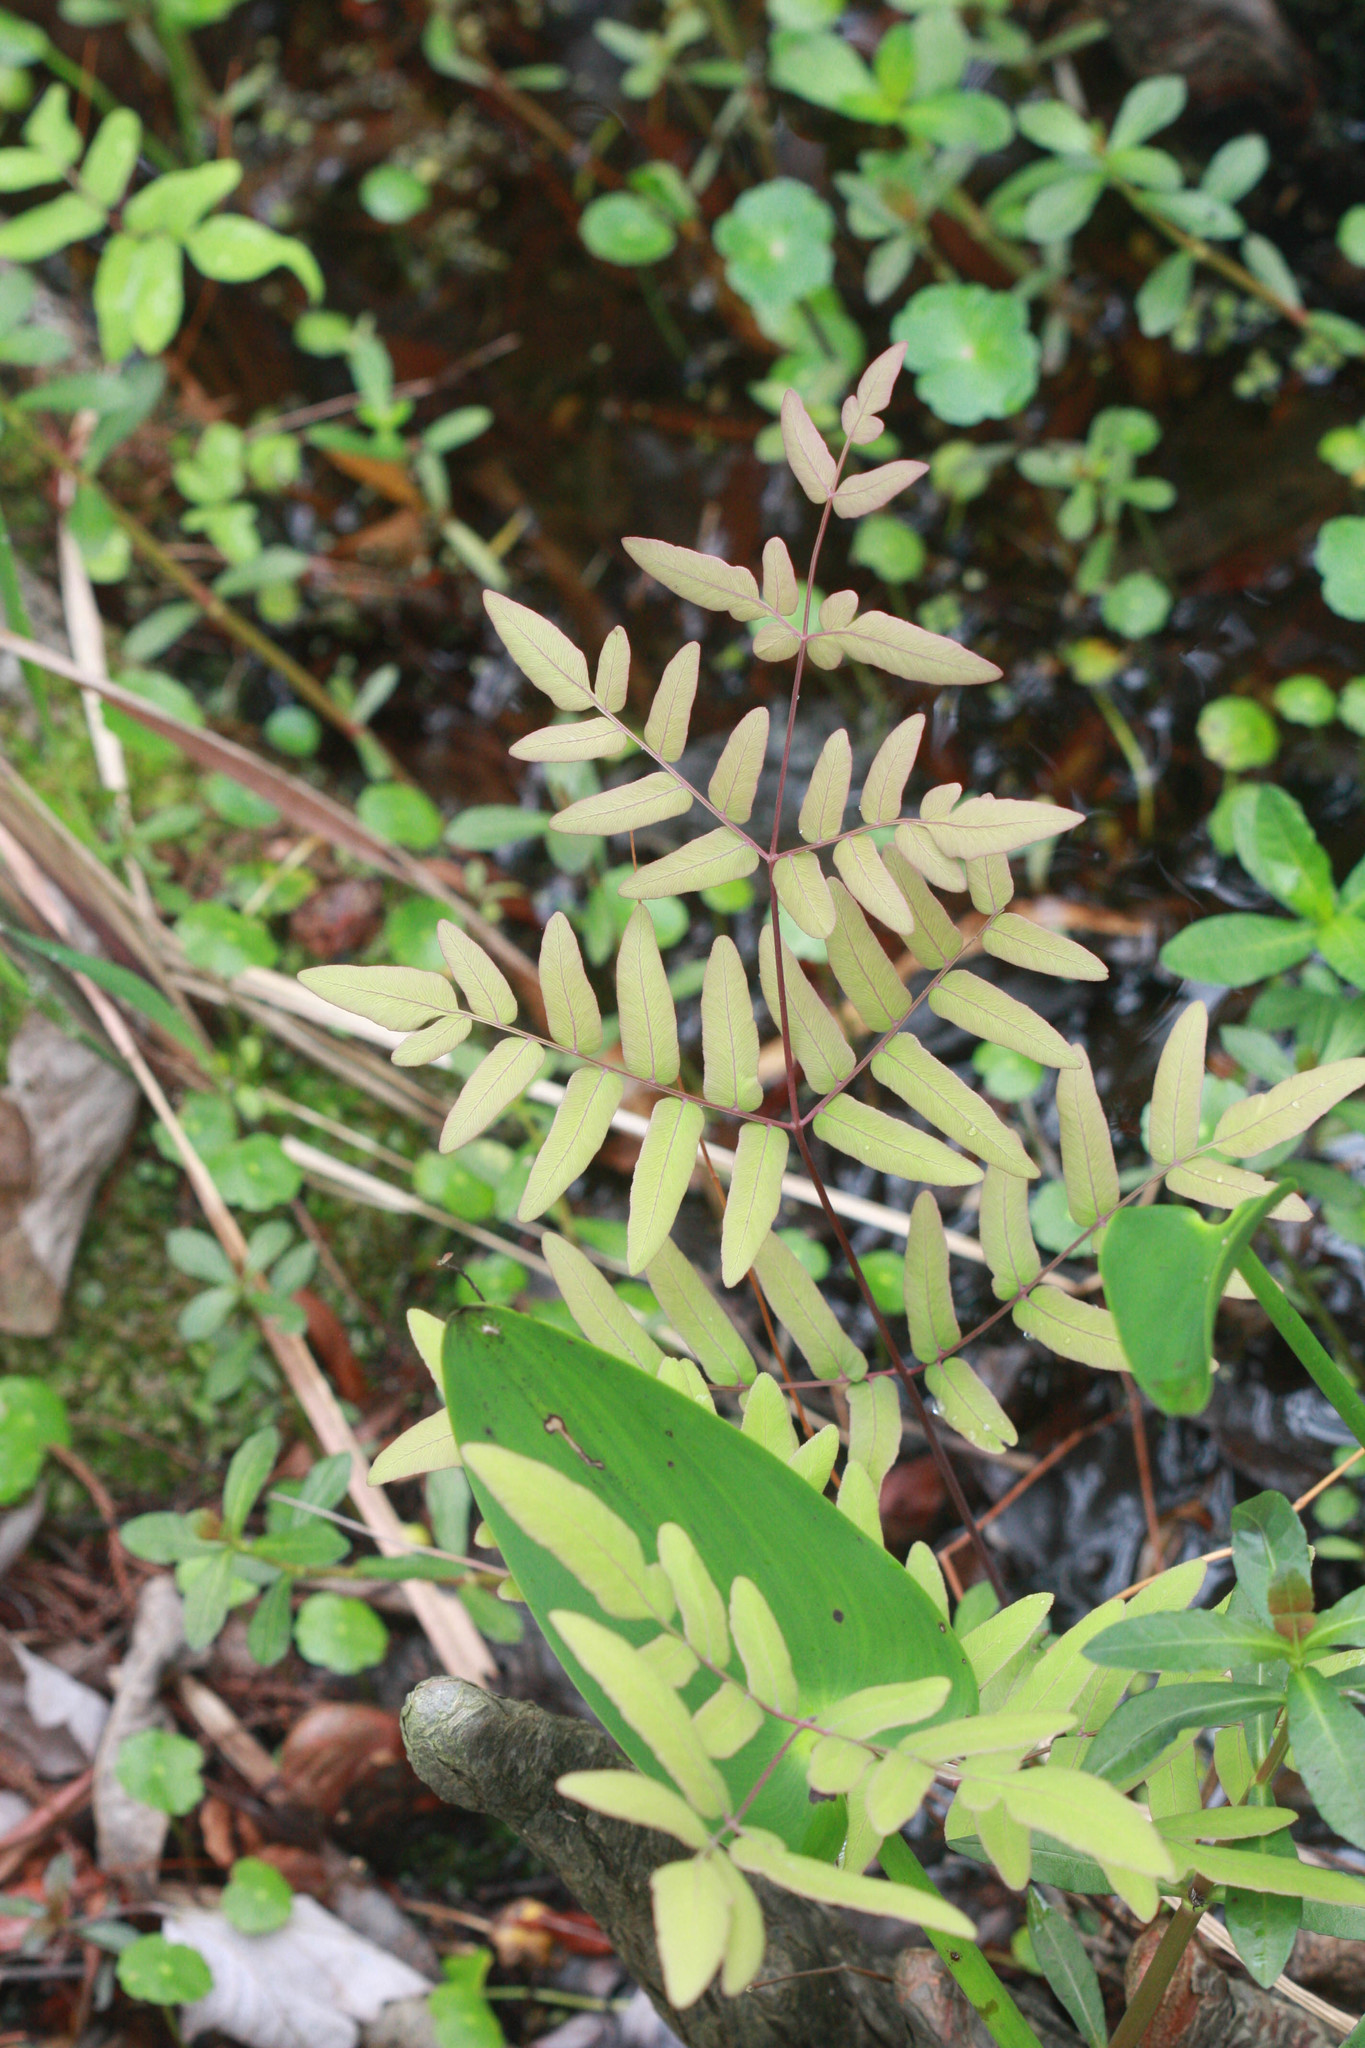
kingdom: Plantae
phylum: Tracheophyta
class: Polypodiopsida
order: Osmundales
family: Osmundaceae
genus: Osmunda
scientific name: Osmunda spectabilis
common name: American royal fern
